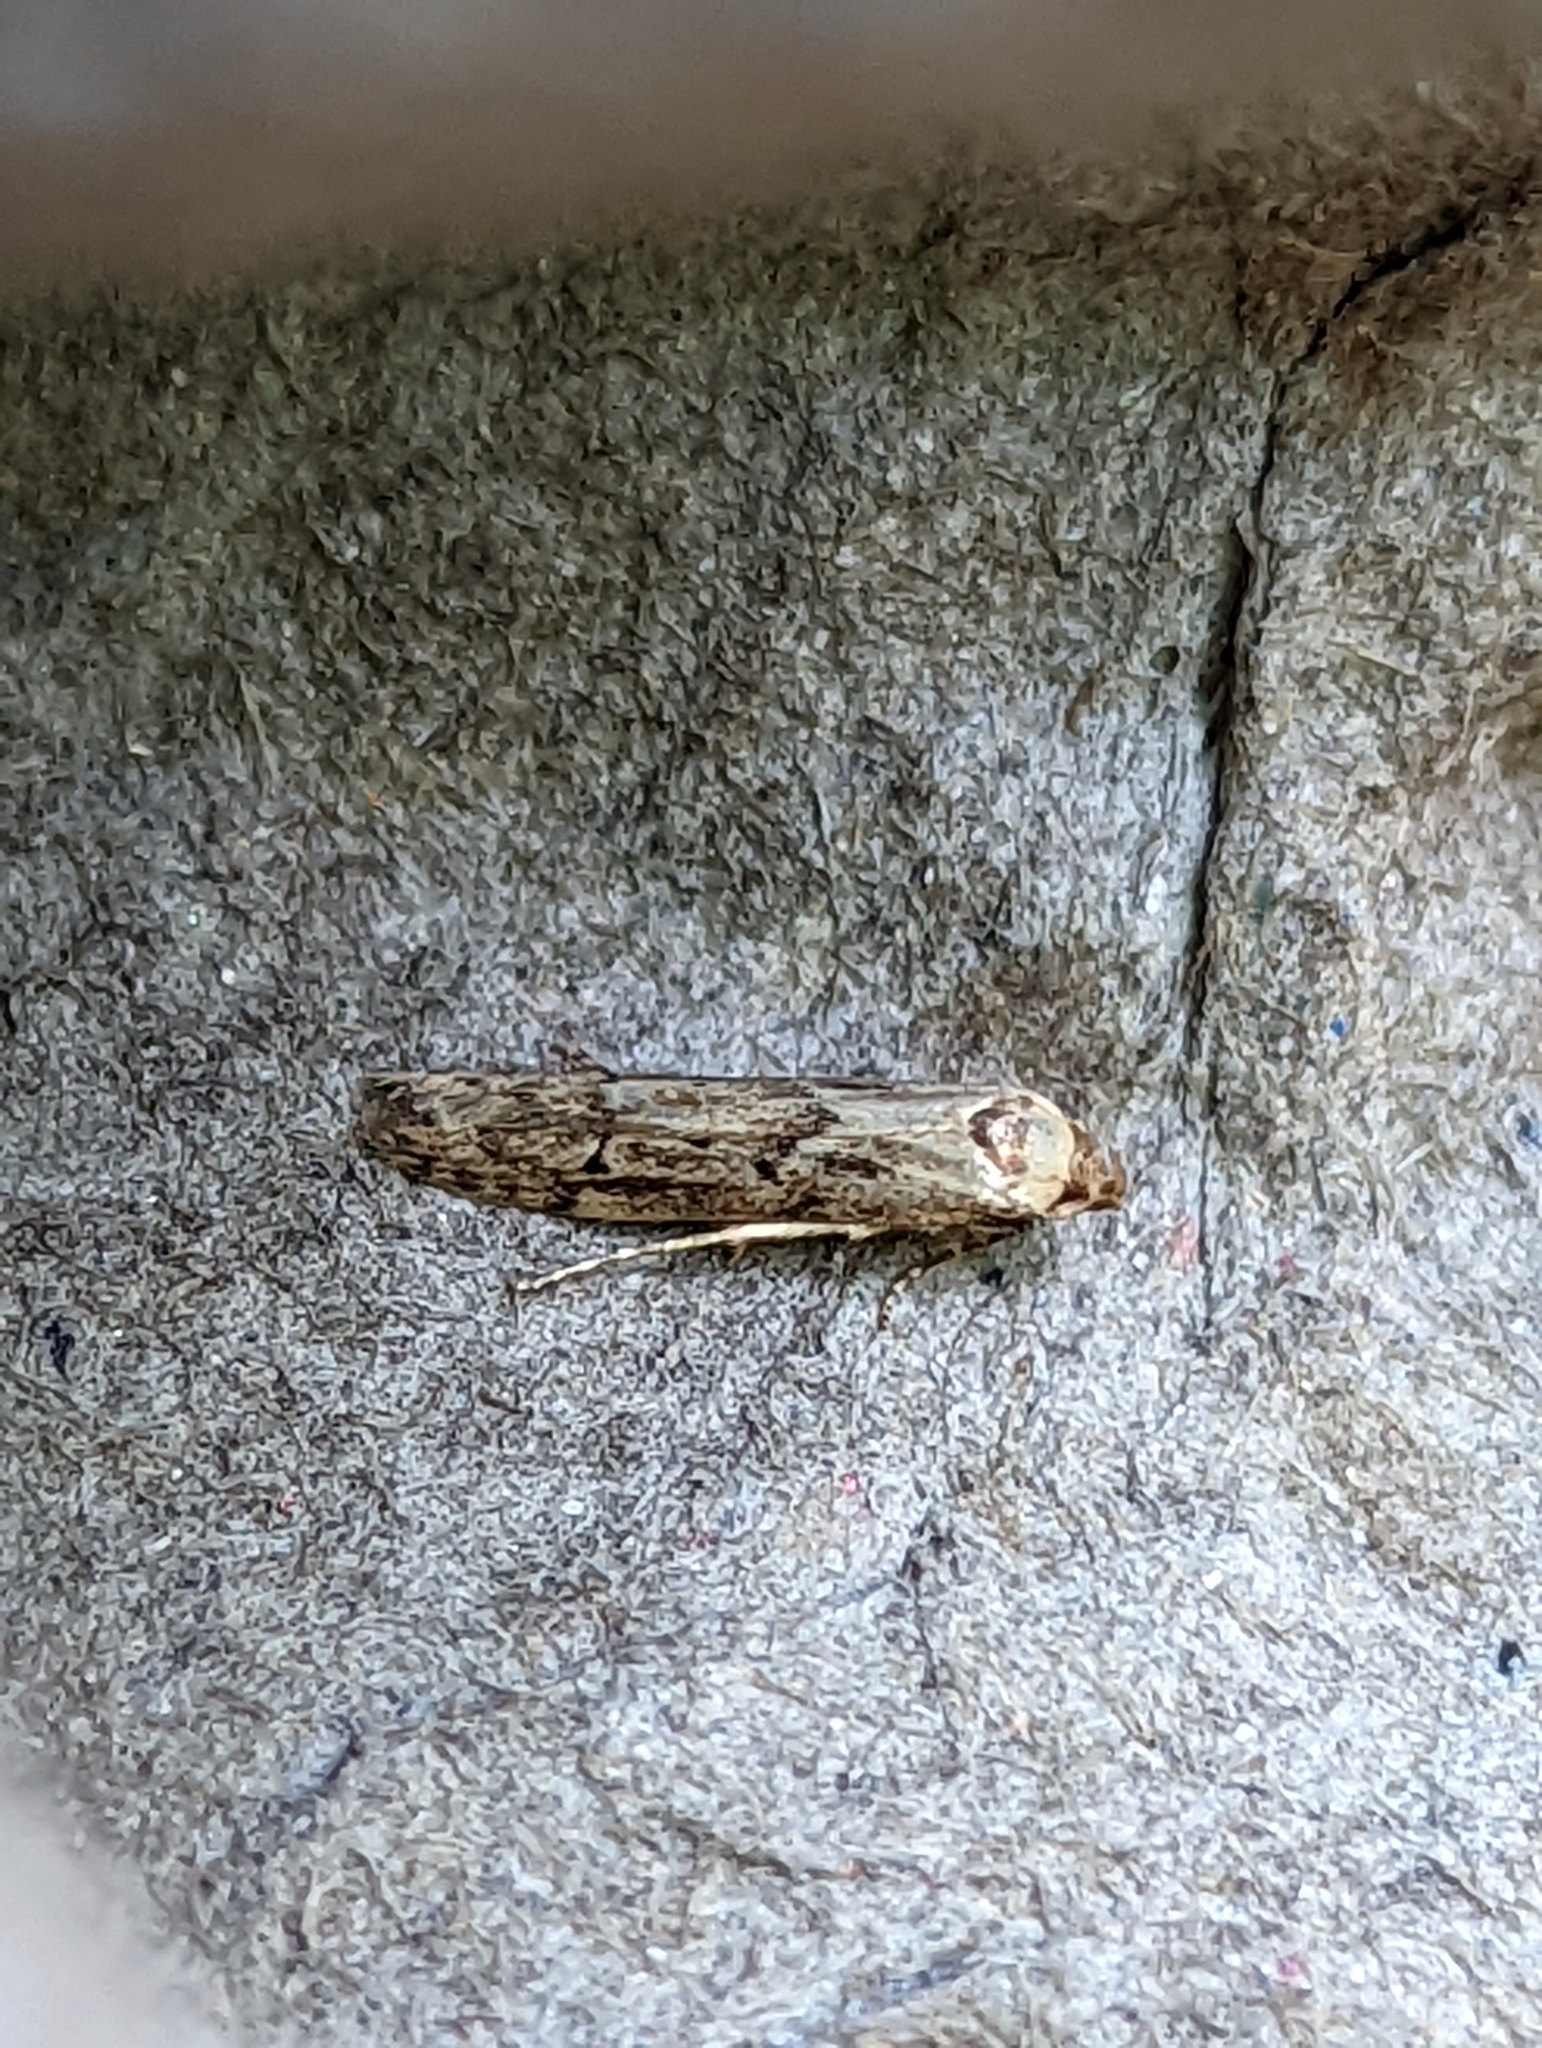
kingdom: Animalia
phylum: Arthropoda
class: Insecta
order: Lepidoptera
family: Blastobasidae
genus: Blastobasis
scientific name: Blastobasis adustella
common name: Dingy dowd
